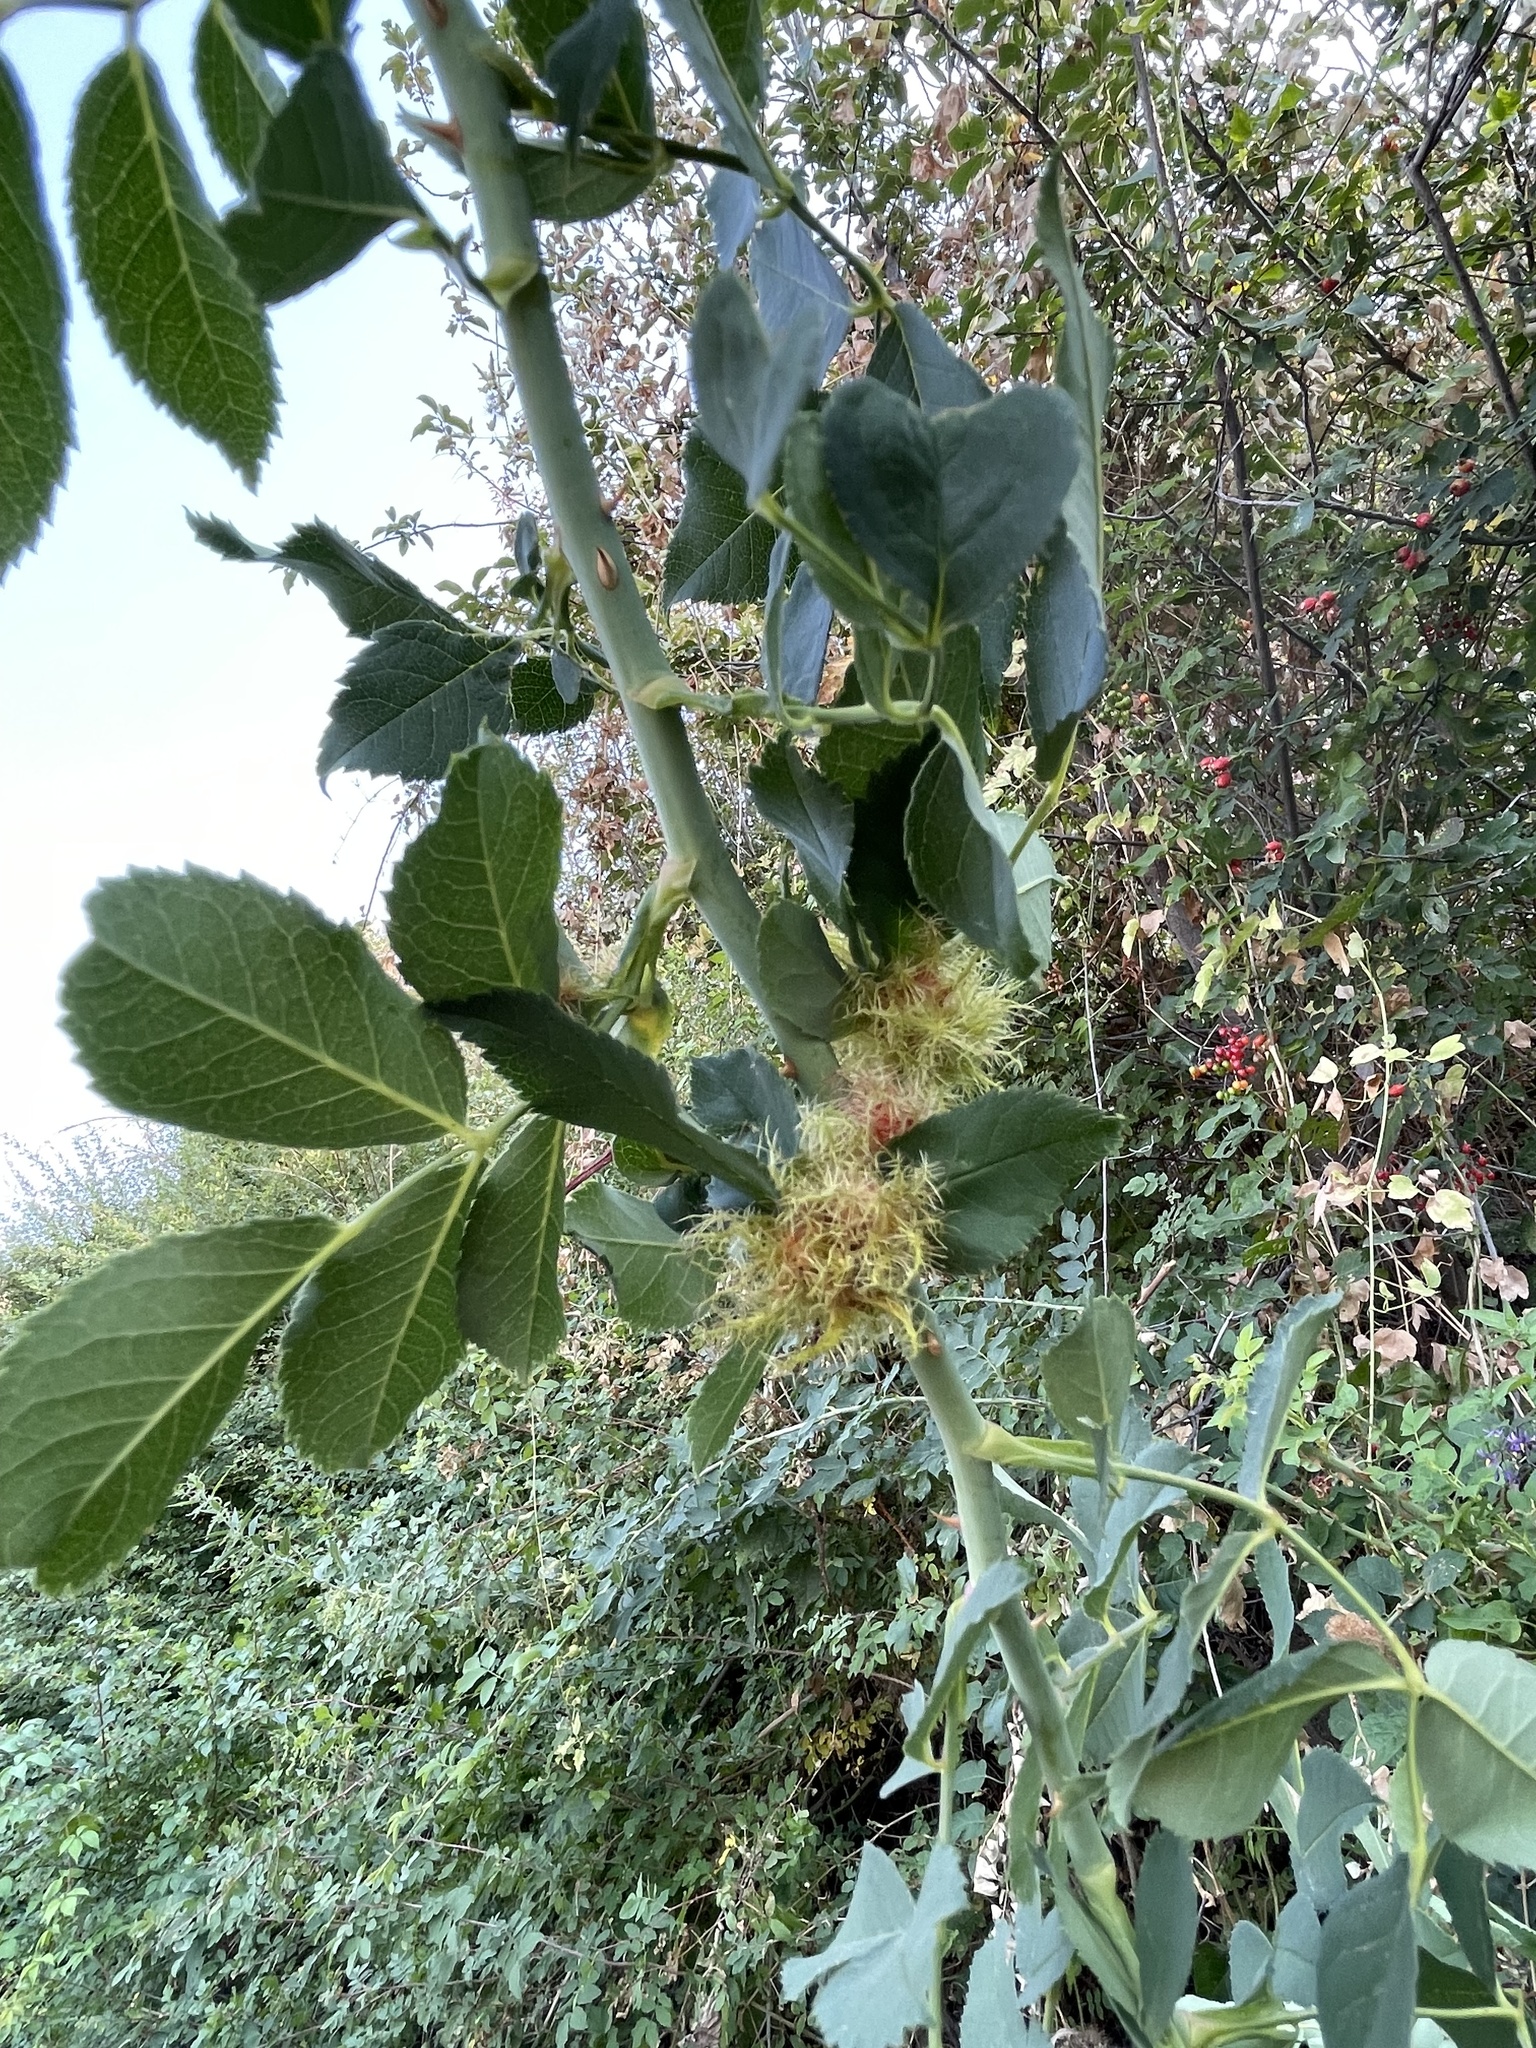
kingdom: Animalia
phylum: Arthropoda
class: Insecta
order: Hymenoptera
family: Cynipidae
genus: Diplolepis
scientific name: Diplolepis rosae
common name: Bedeguar gall
